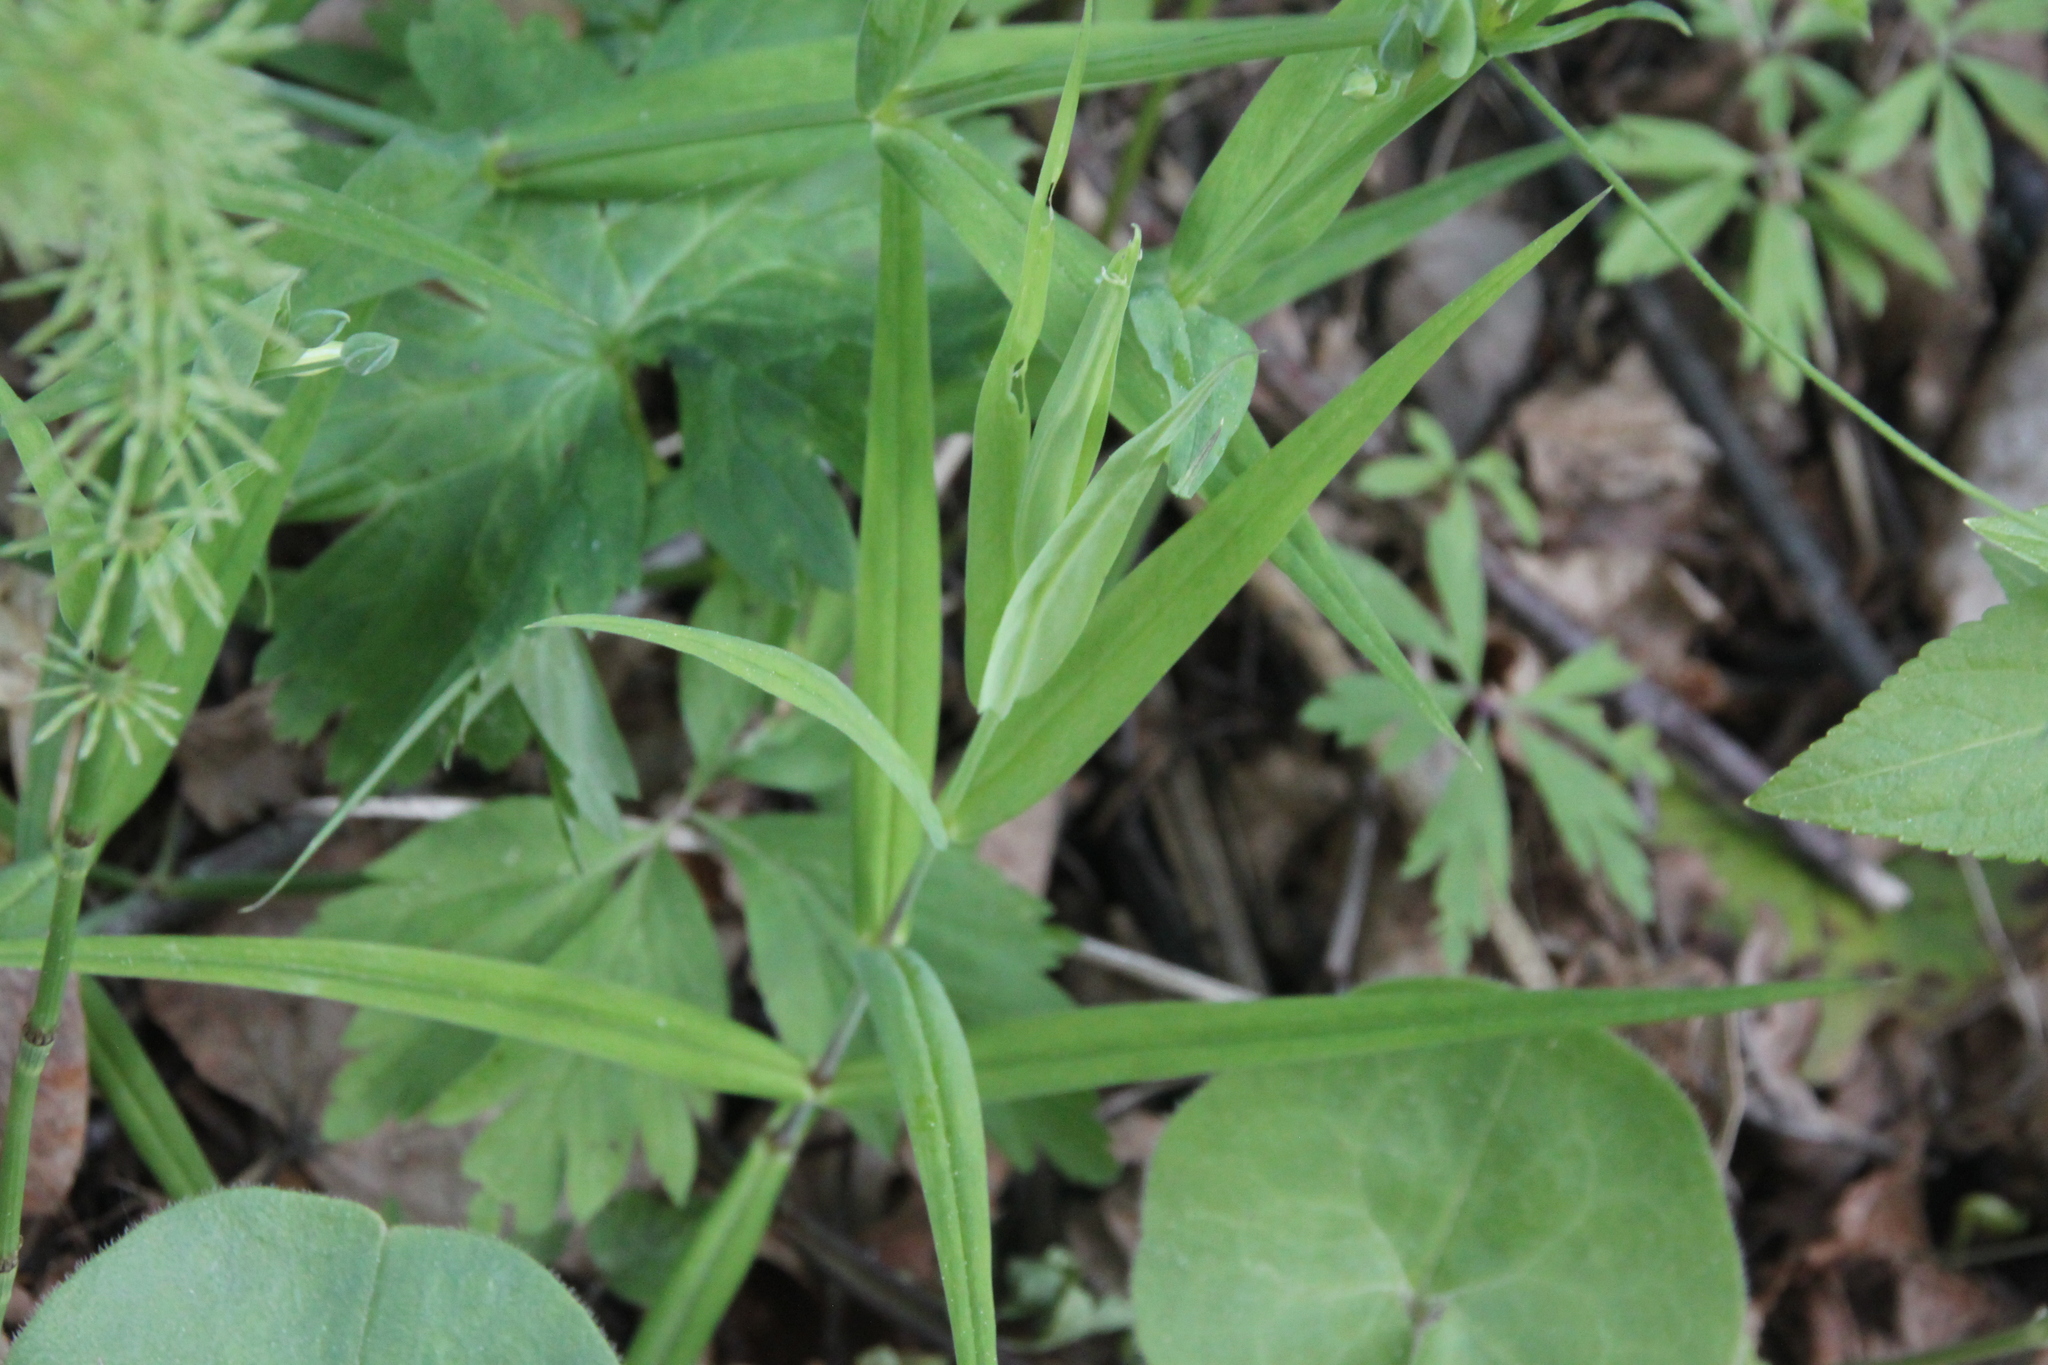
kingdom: Plantae
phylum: Tracheophyta
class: Magnoliopsida
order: Caryophyllales
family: Caryophyllaceae
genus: Rabelera
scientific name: Rabelera holostea
